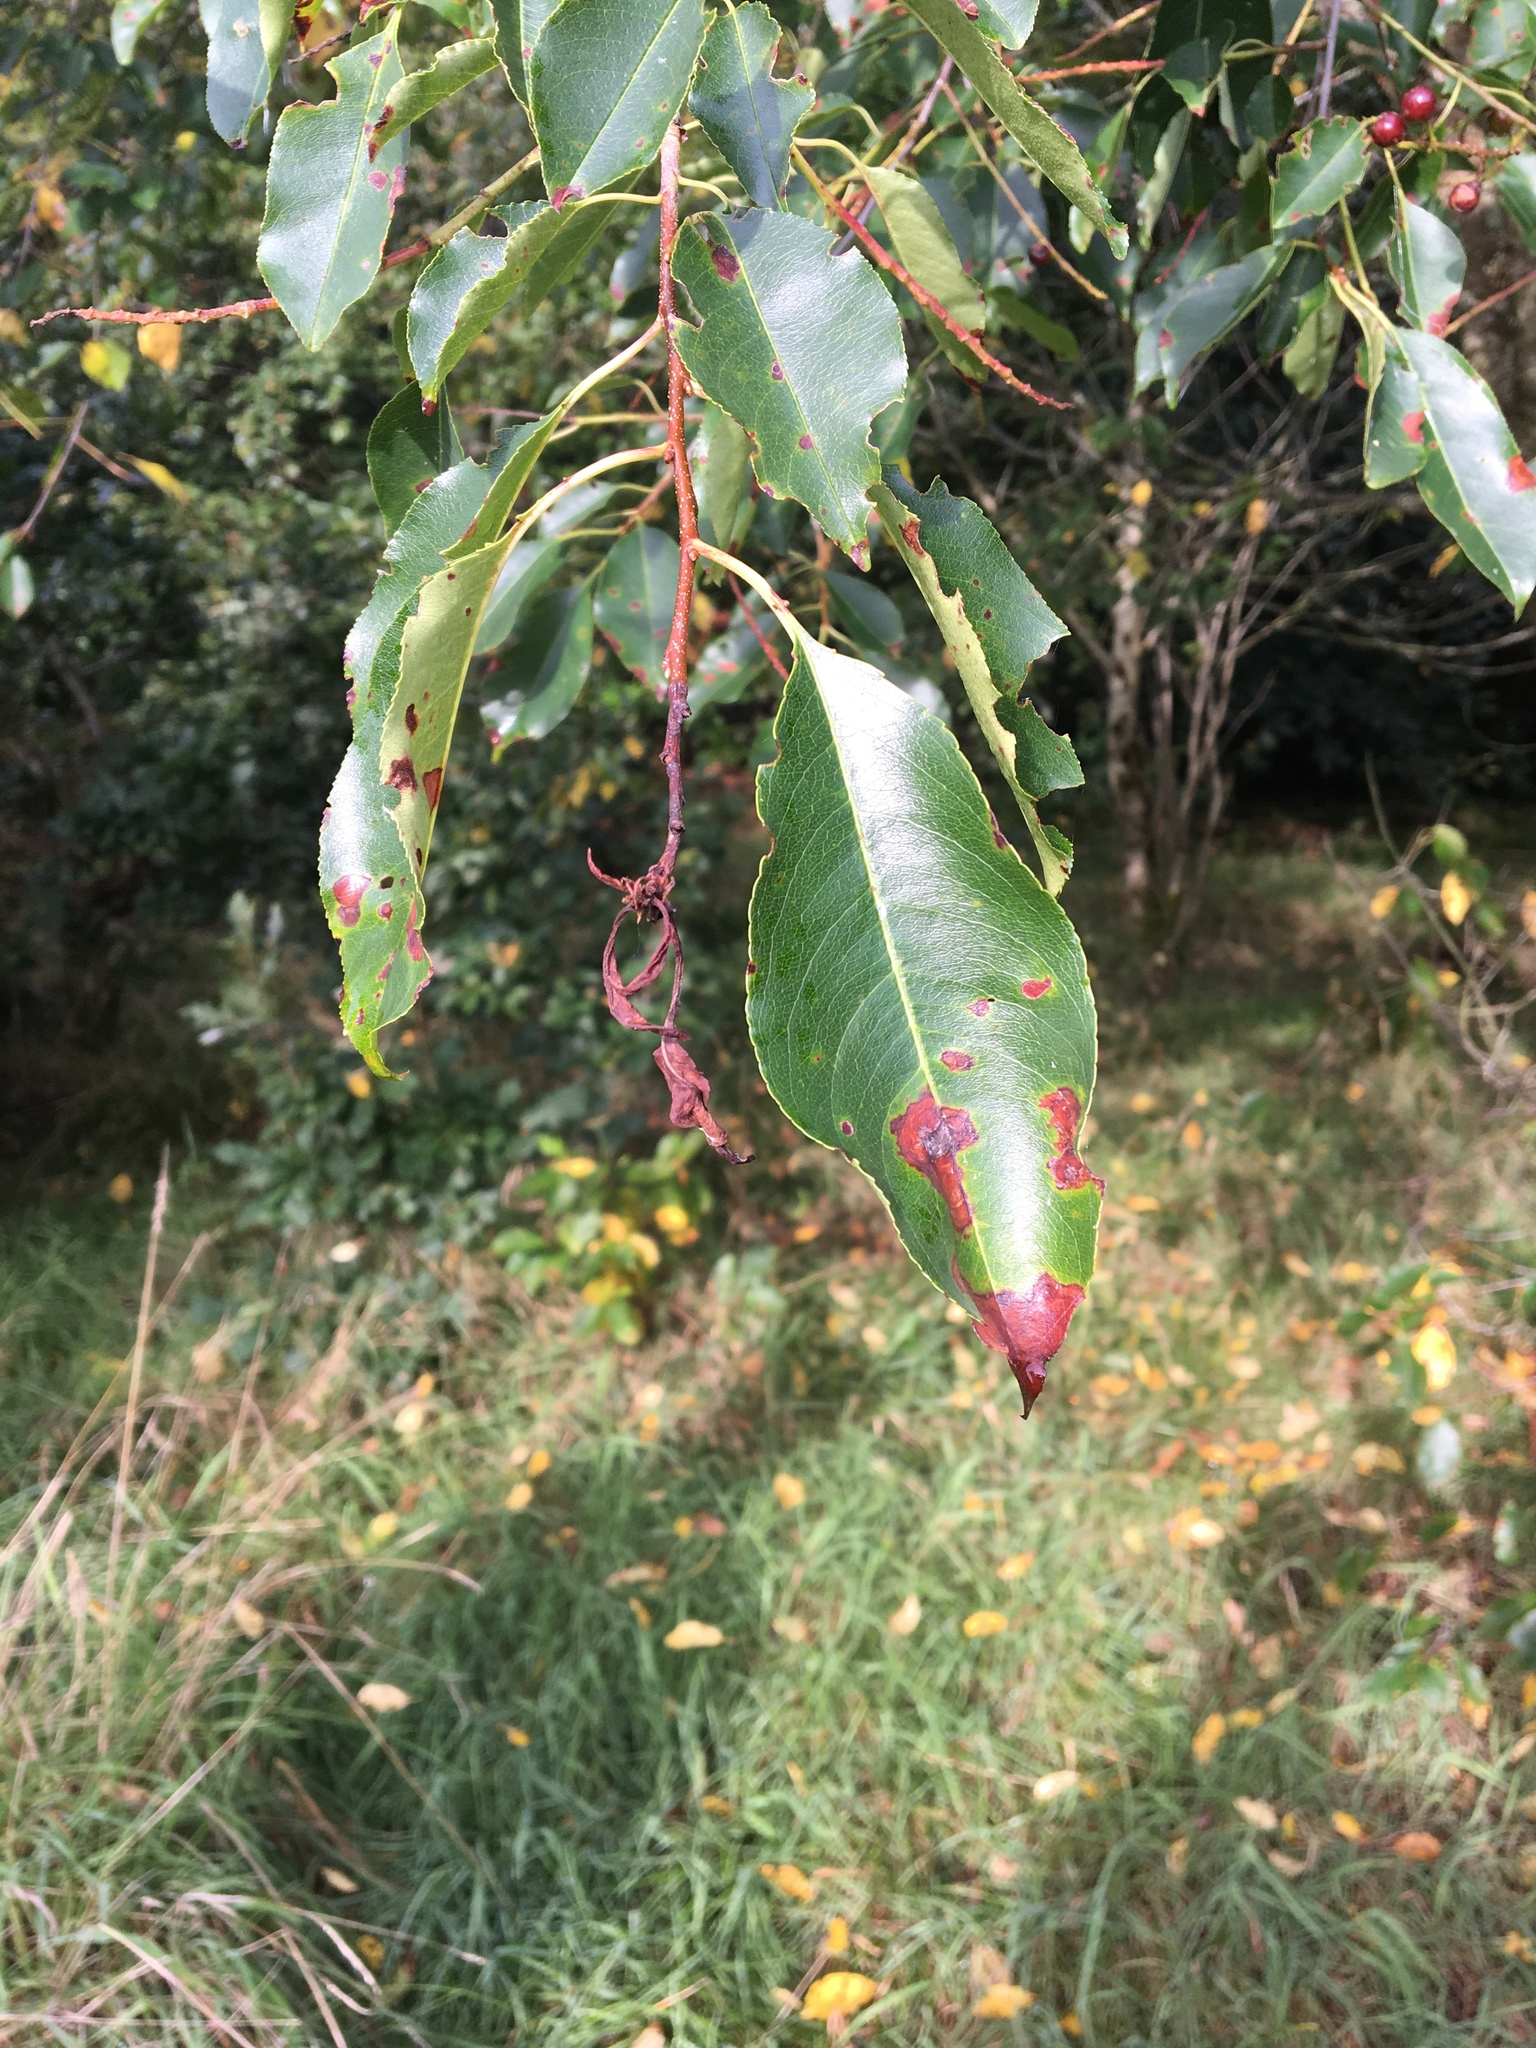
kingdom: Plantae
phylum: Tracheophyta
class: Magnoliopsida
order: Rosales
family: Rosaceae
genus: Prunus
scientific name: Prunus serotina
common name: Black cherry
